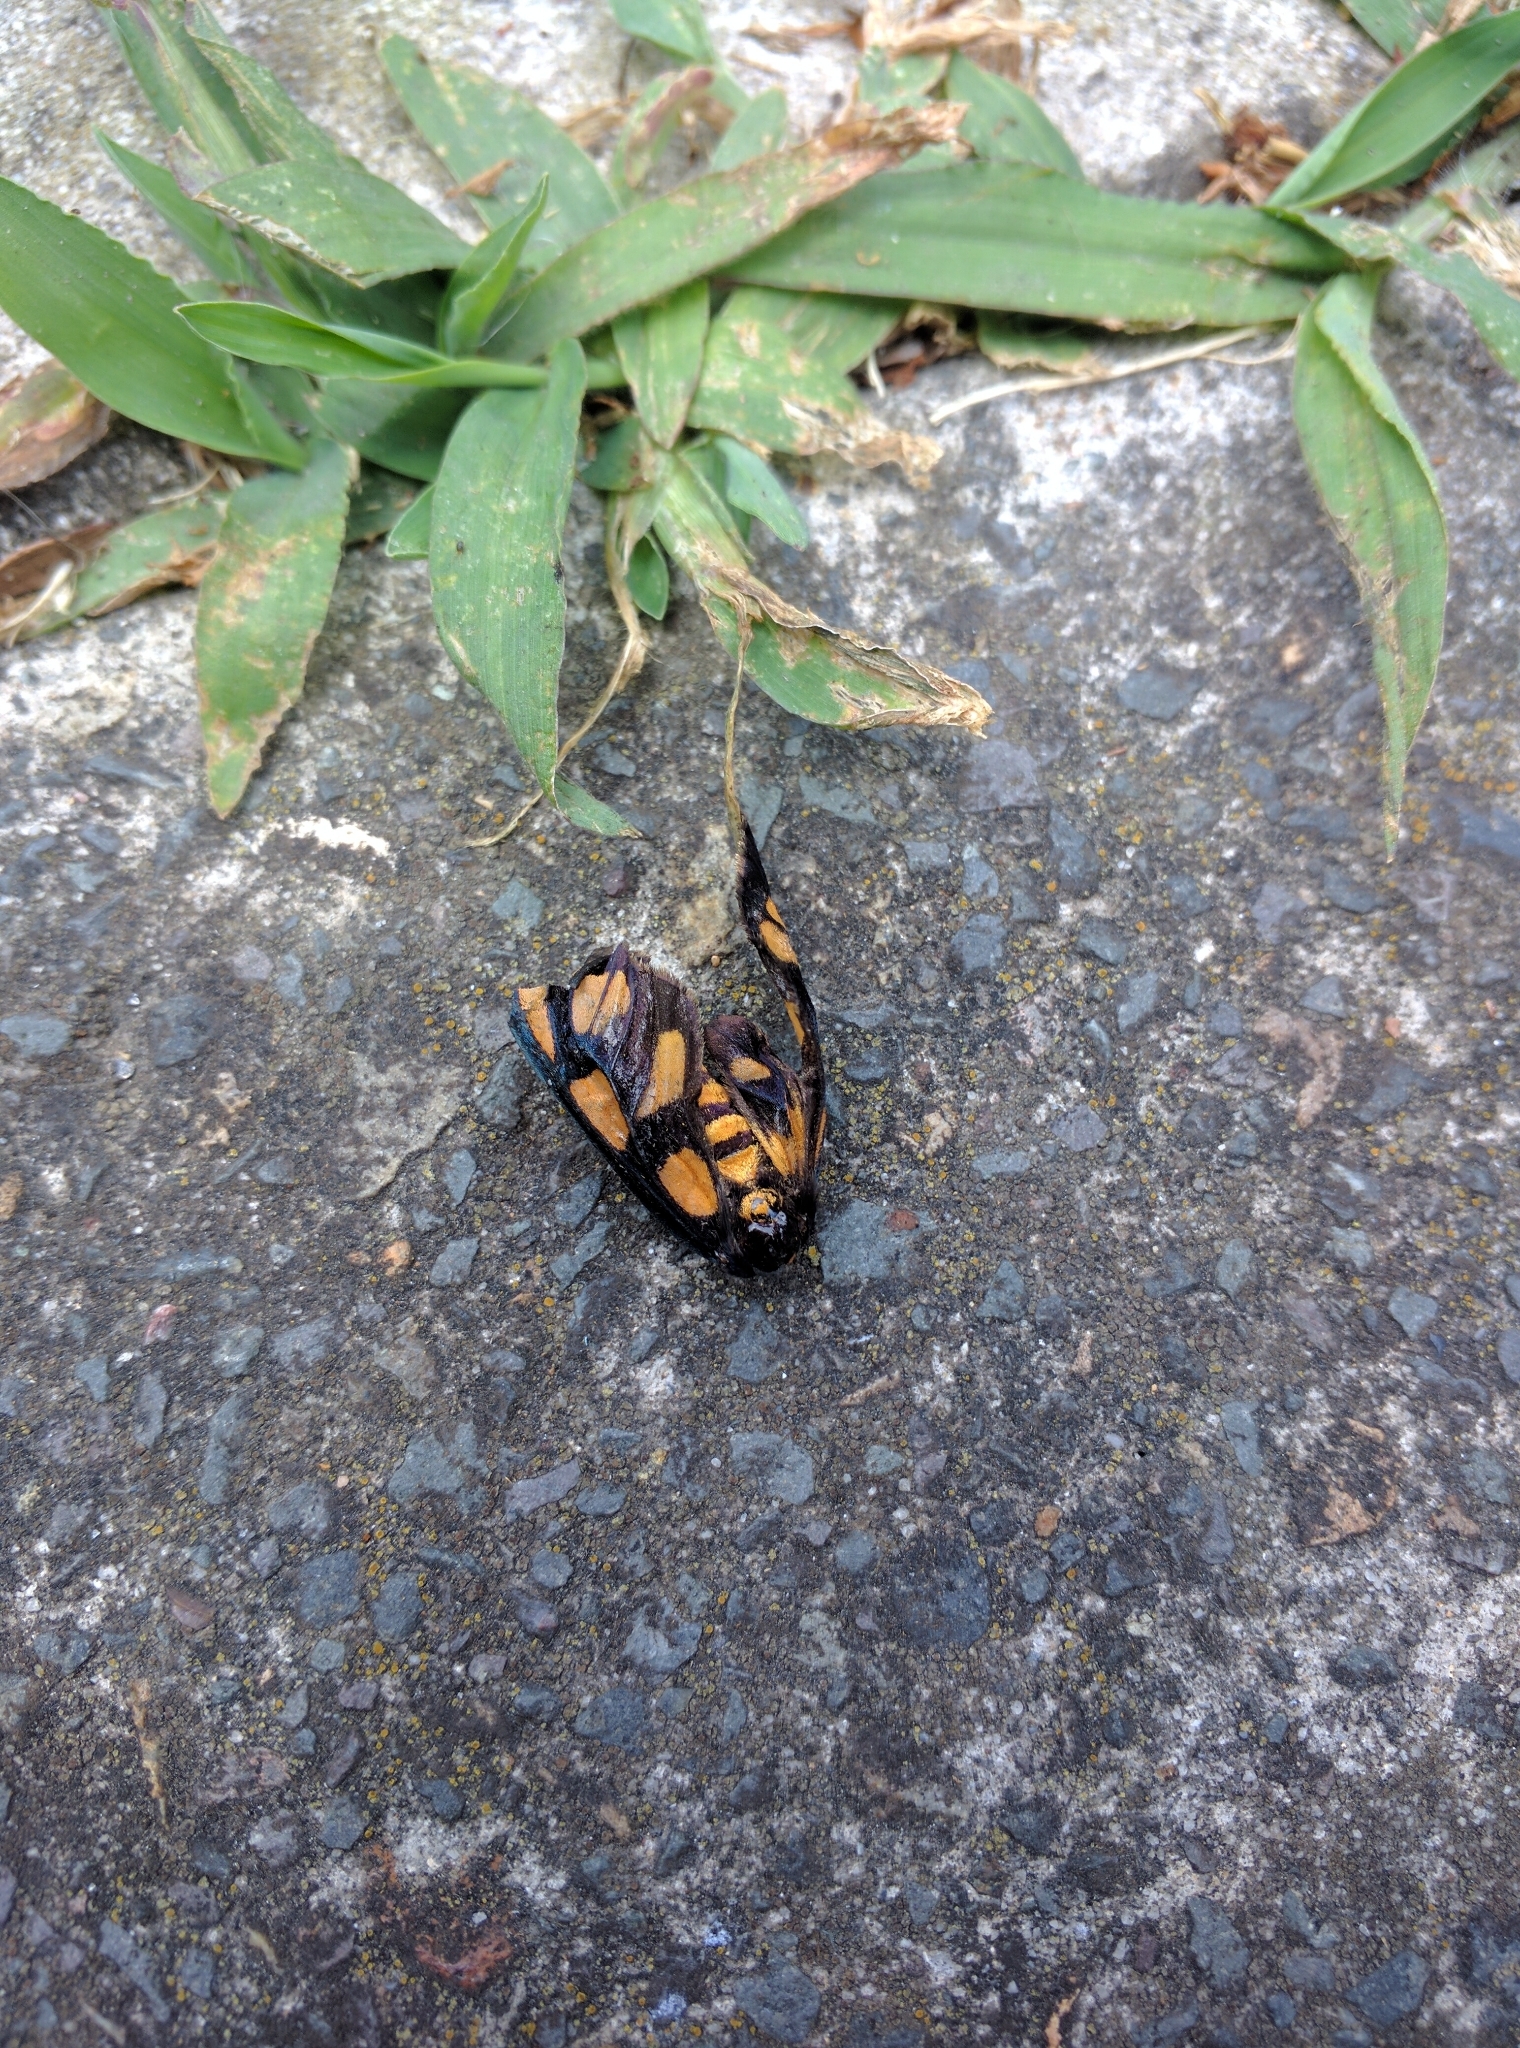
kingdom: Animalia
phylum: Arthropoda
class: Insecta
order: Lepidoptera
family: Erebidae
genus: Amata
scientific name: Amata aperta
